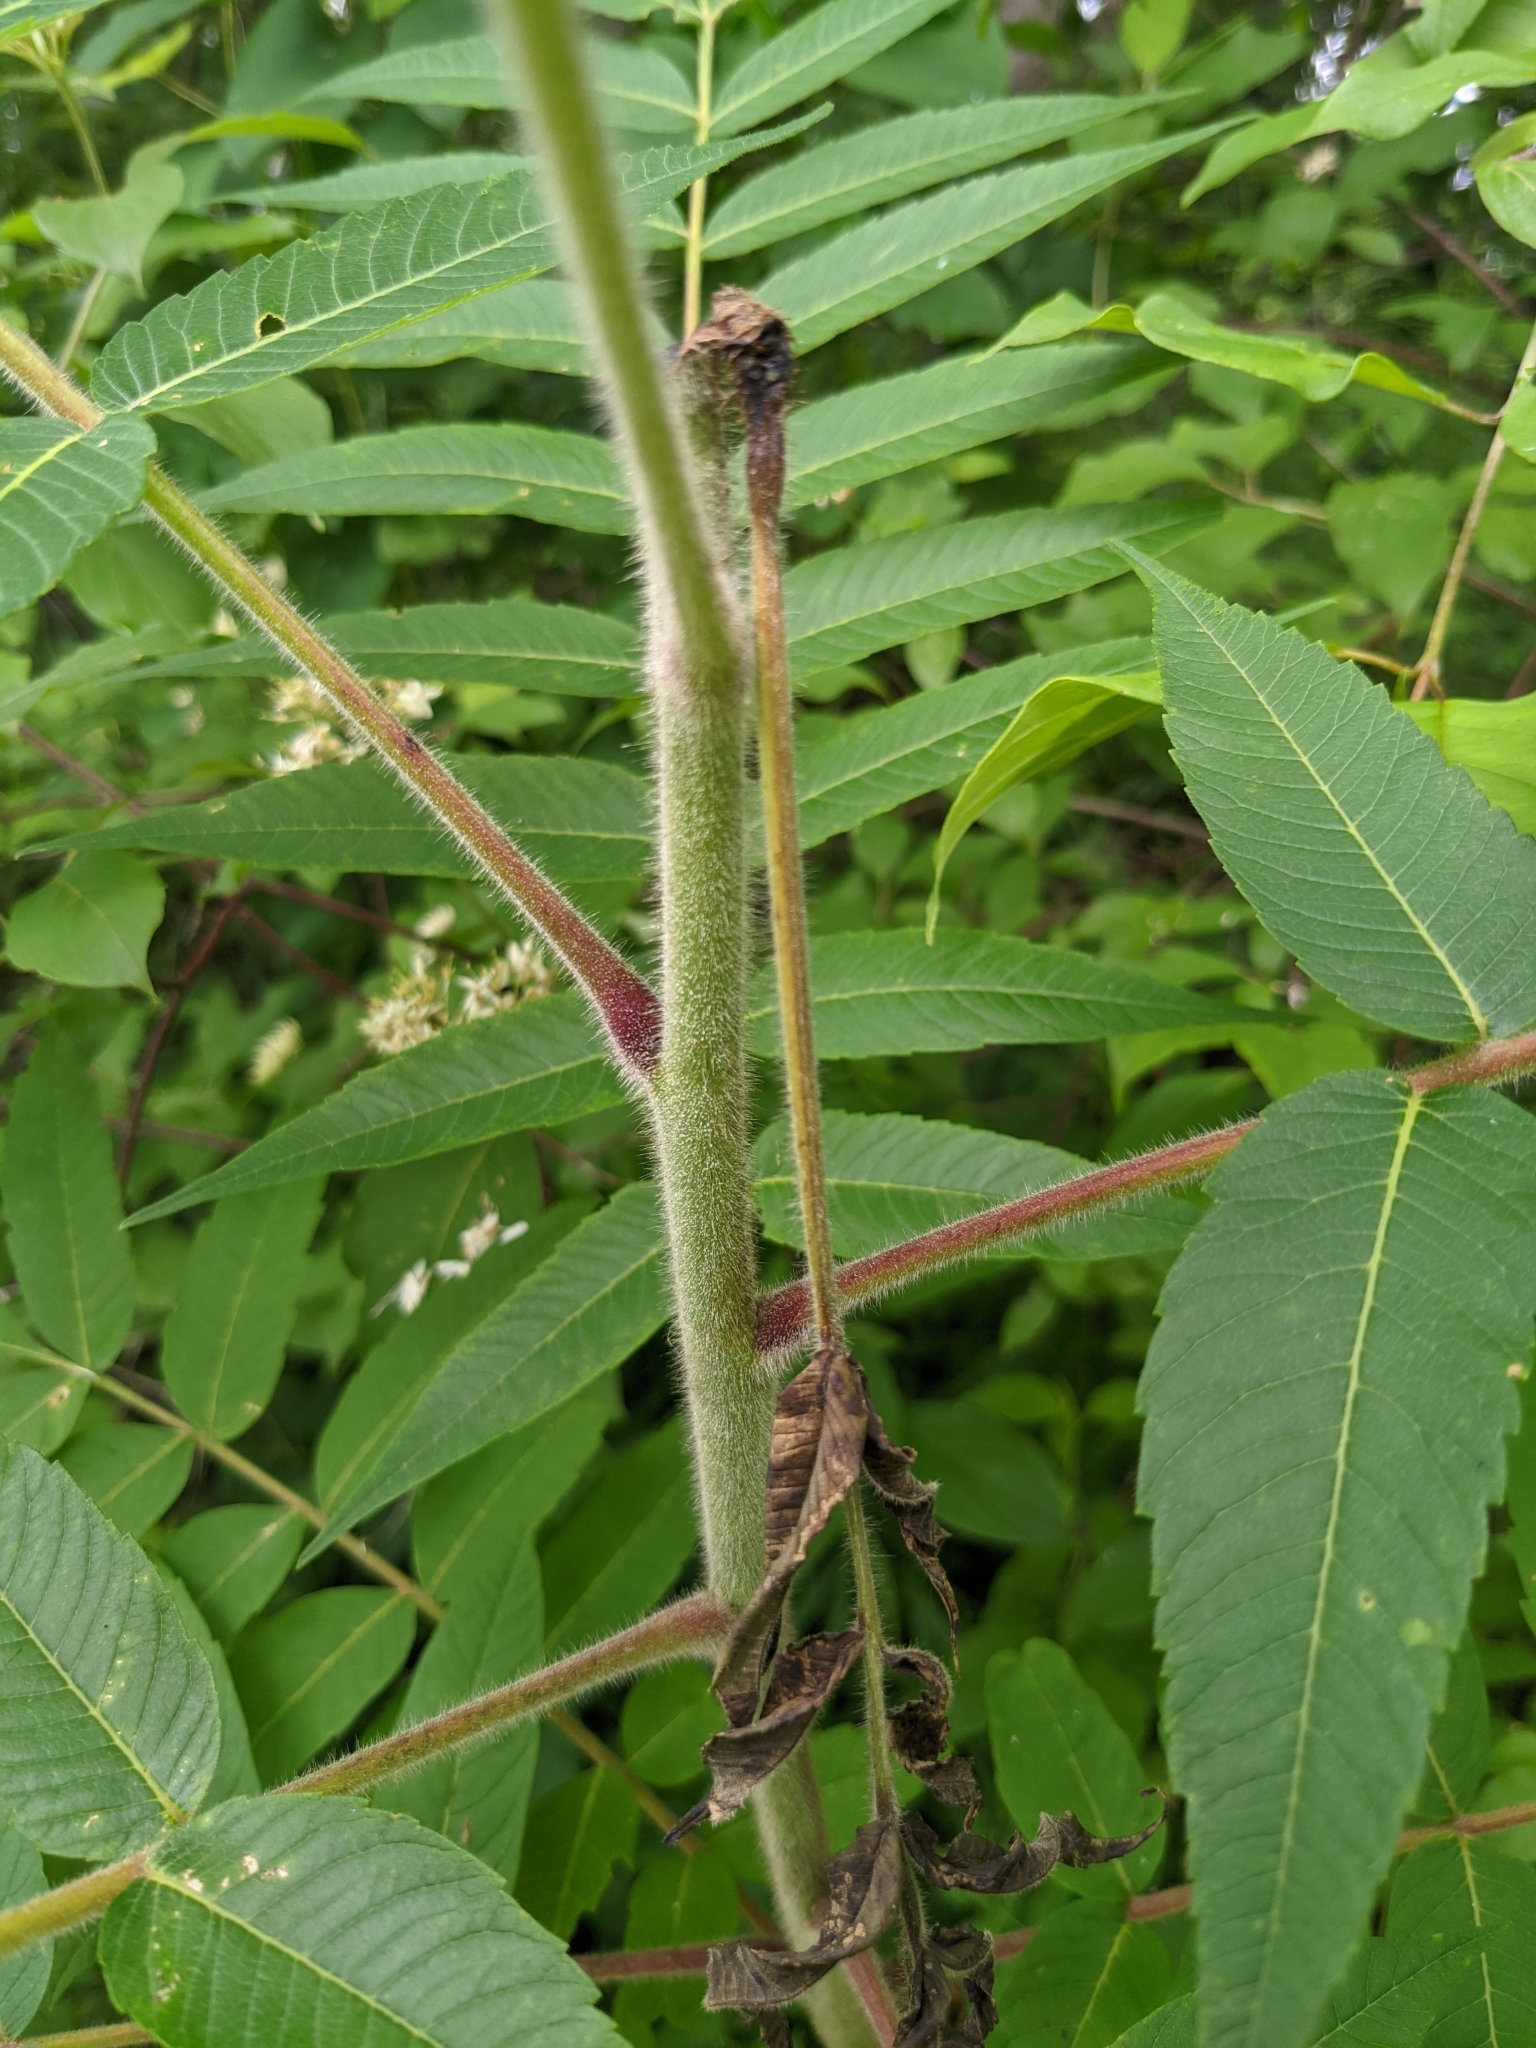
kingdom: Plantae
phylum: Tracheophyta
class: Magnoliopsida
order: Sapindales
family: Anacardiaceae
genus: Rhus
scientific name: Rhus typhina
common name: Staghorn sumac
